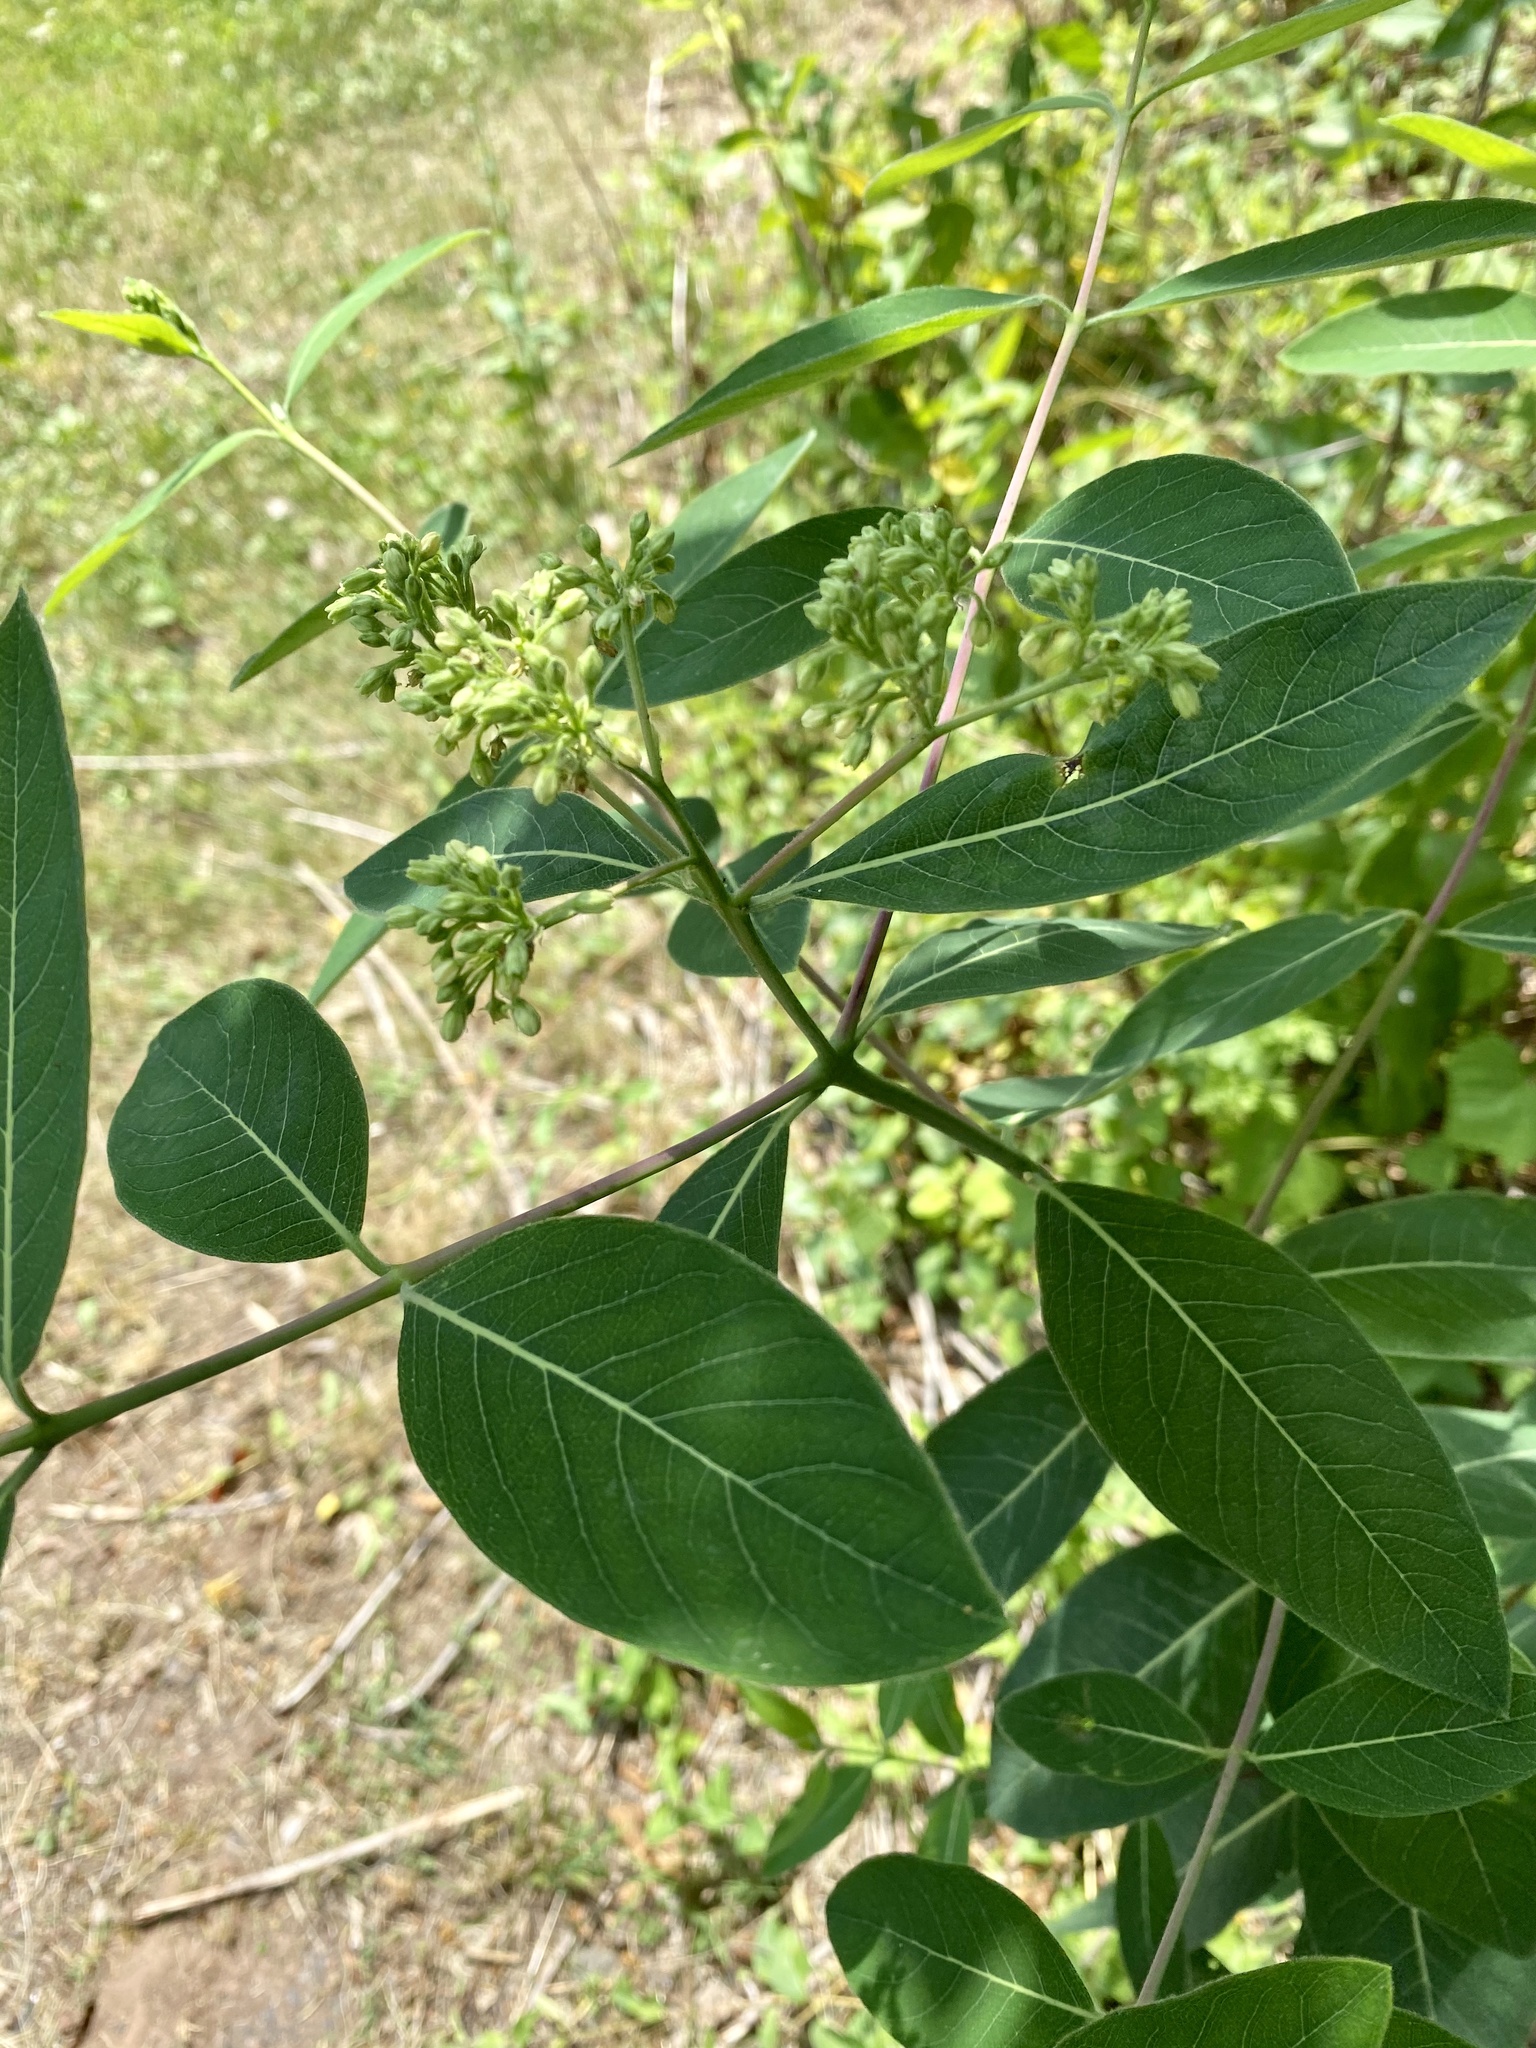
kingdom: Plantae
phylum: Tracheophyta
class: Magnoliopsida
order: Gentianales
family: Apocynaceae
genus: Apocynum
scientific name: Apocynum cannabinum
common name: Hemp dogbane
